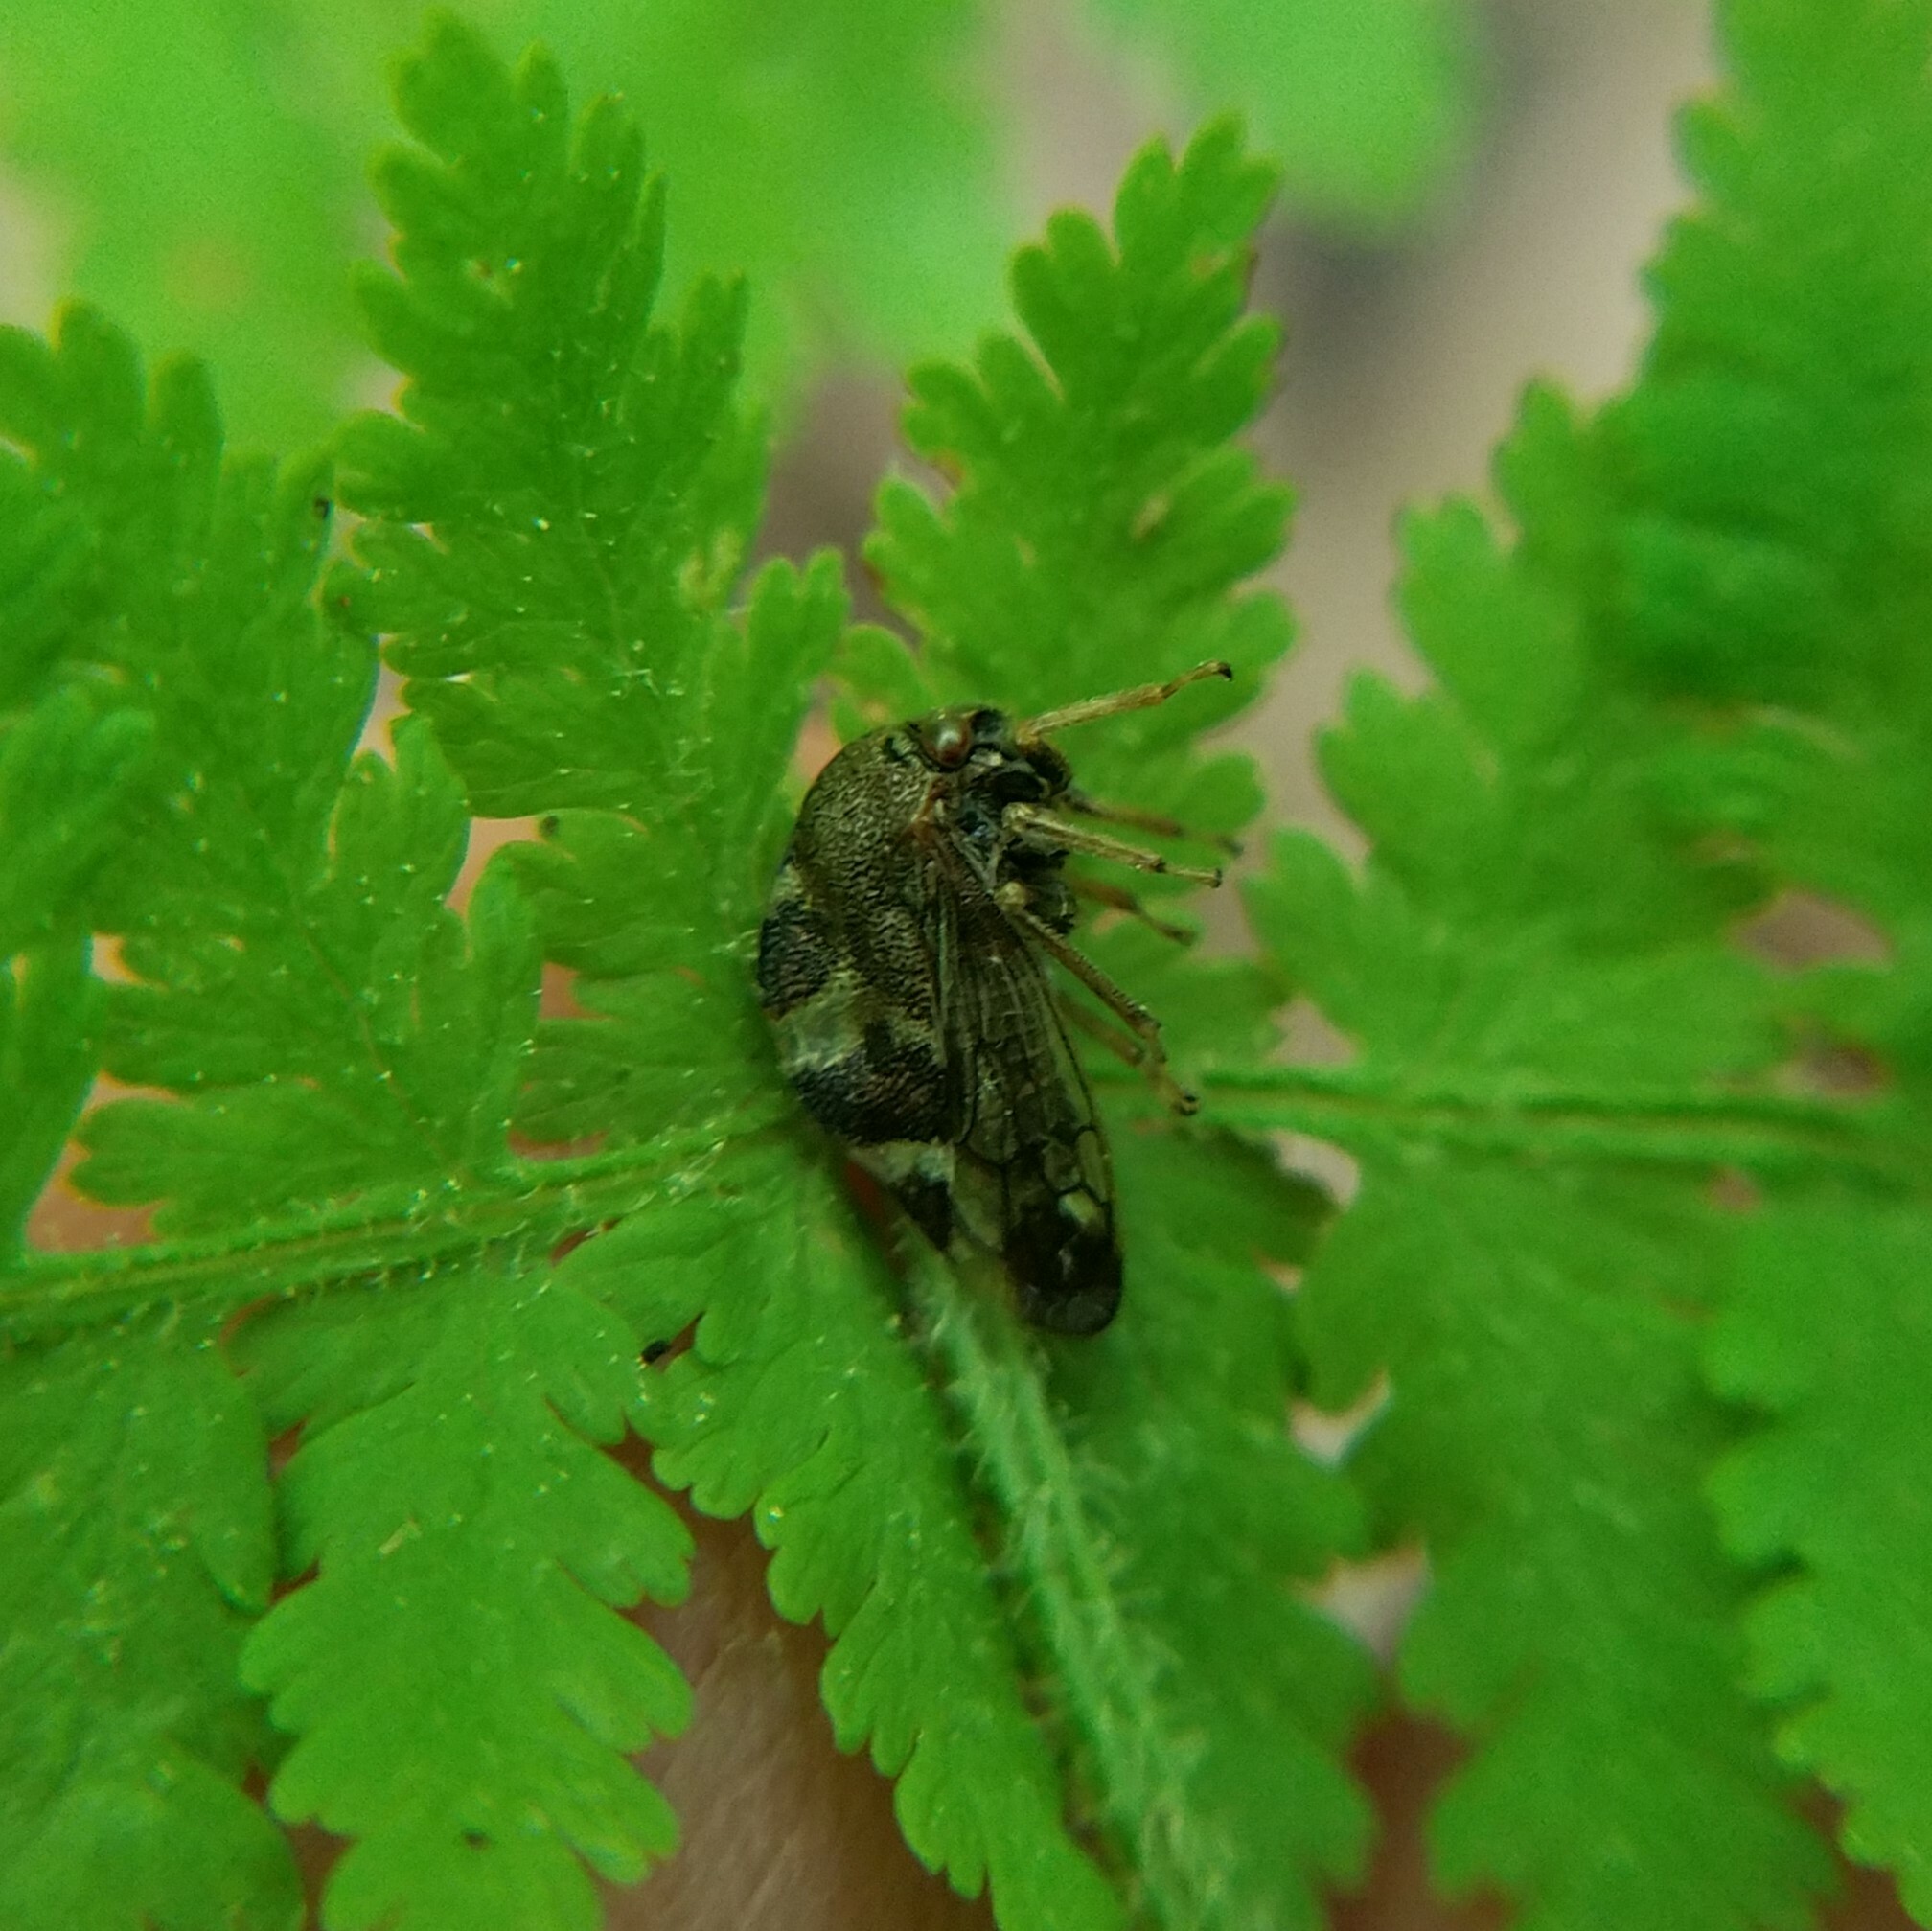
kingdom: Animalia
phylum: Arthropoda
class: Insecta
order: Hemiptera
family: Membracidae
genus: Cyrtolobus
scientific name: Cyrtolobus tuberosa
